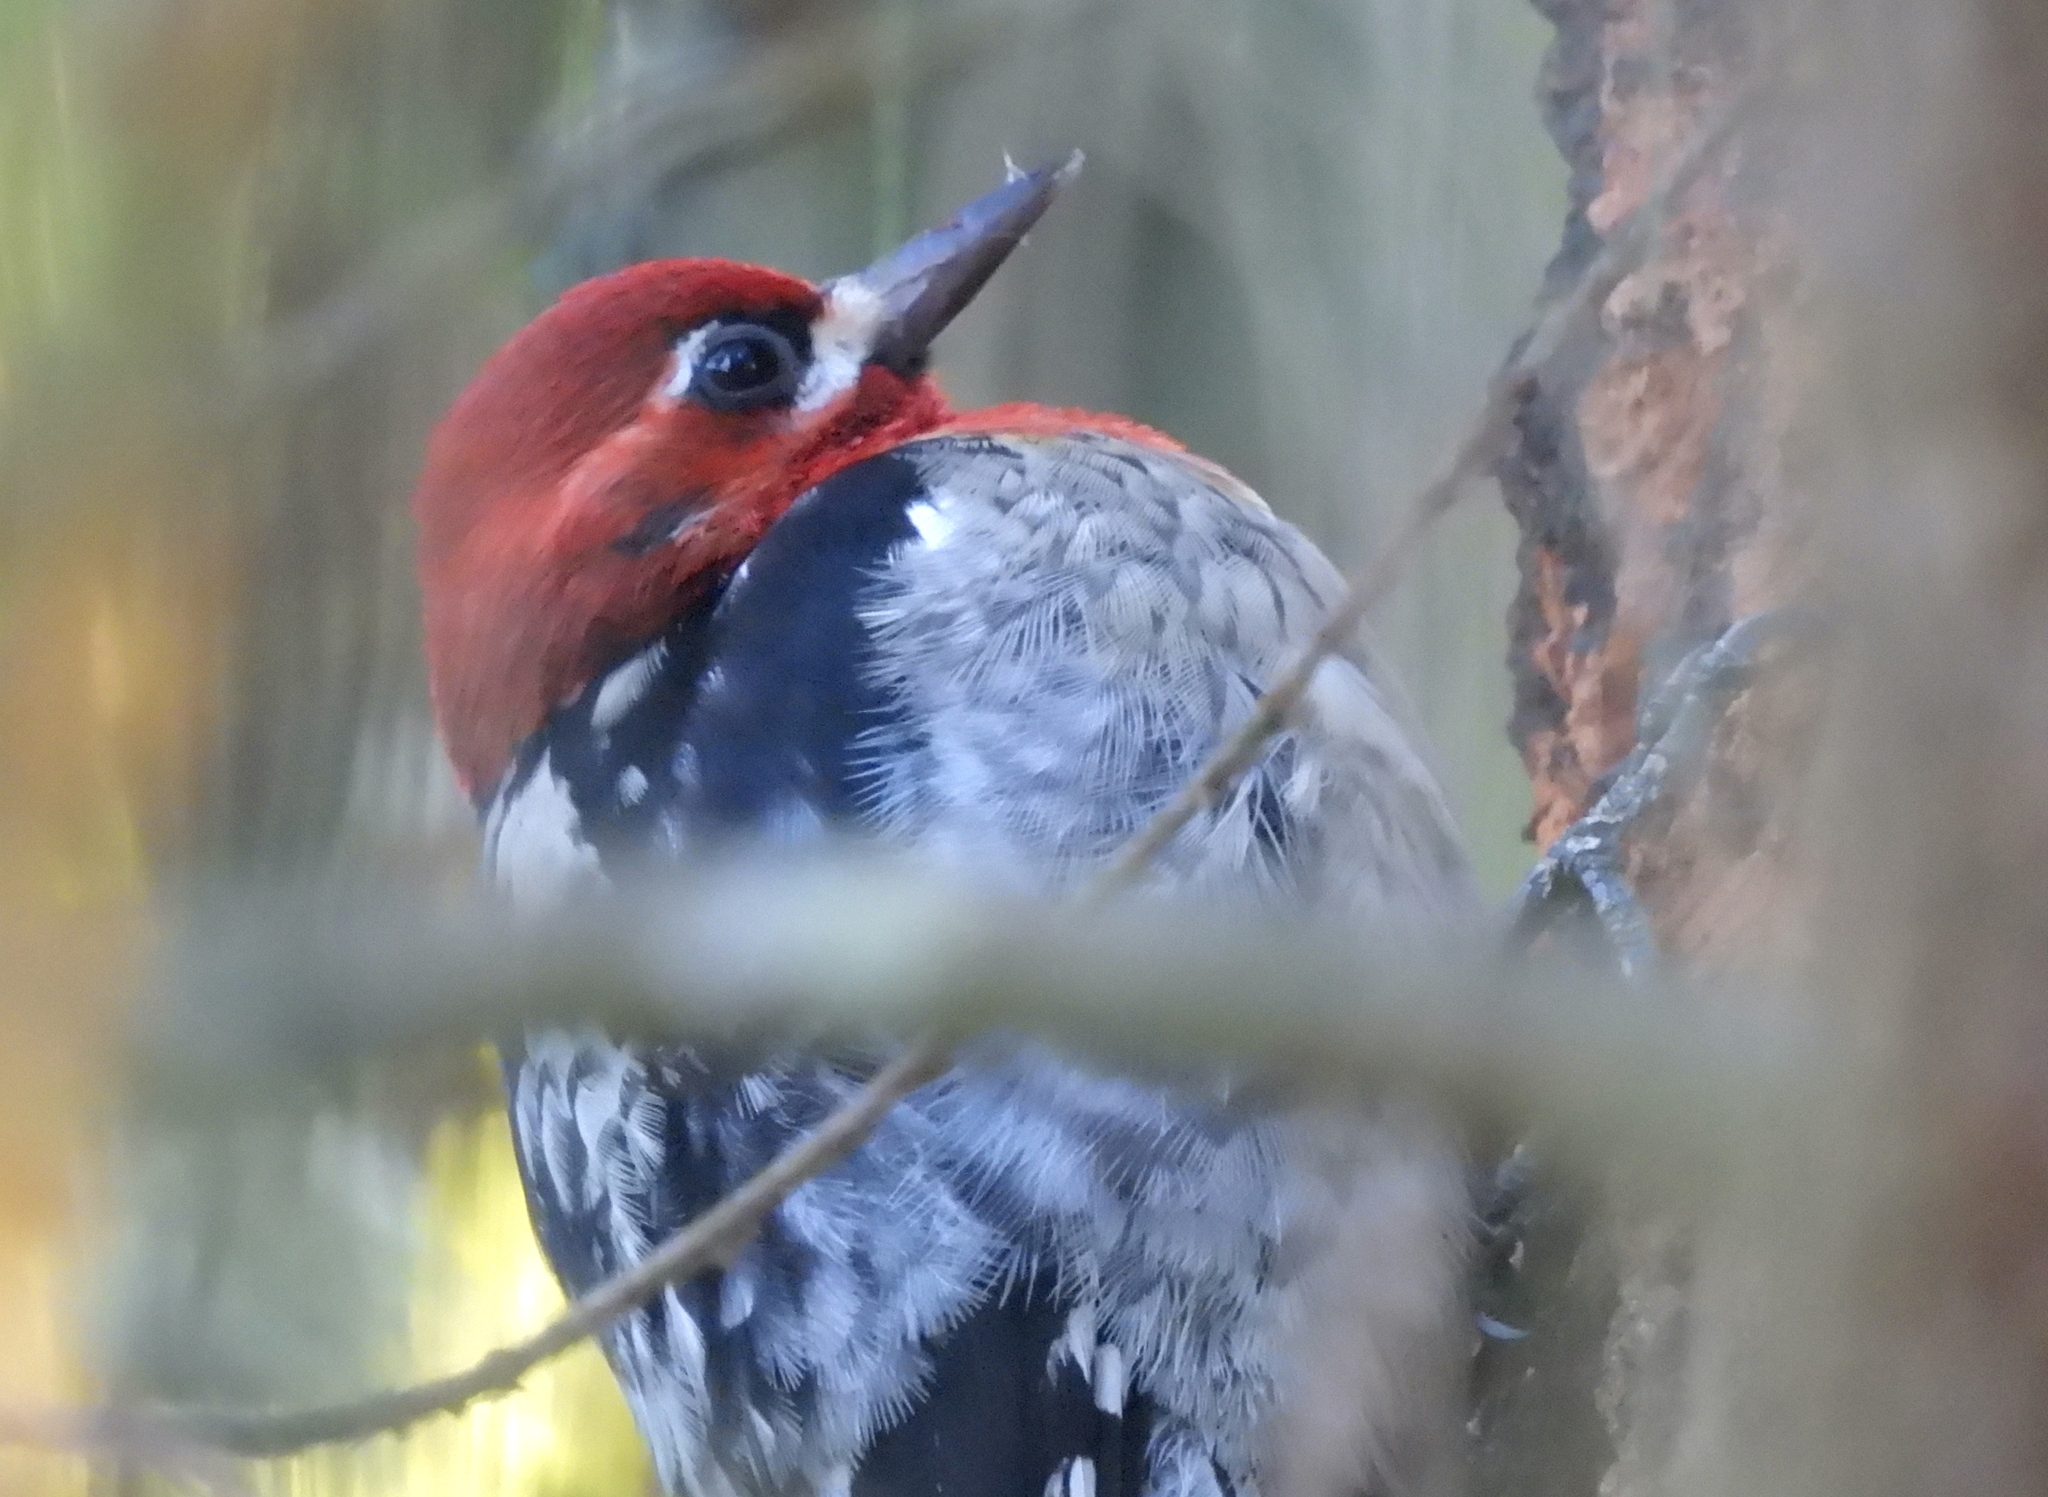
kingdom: Animalia
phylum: Chordata
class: Aves
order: Piciformes
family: Picidae
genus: Sphyrapicus
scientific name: Sphyrapicus ruber
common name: Red-breasted sapsucker
